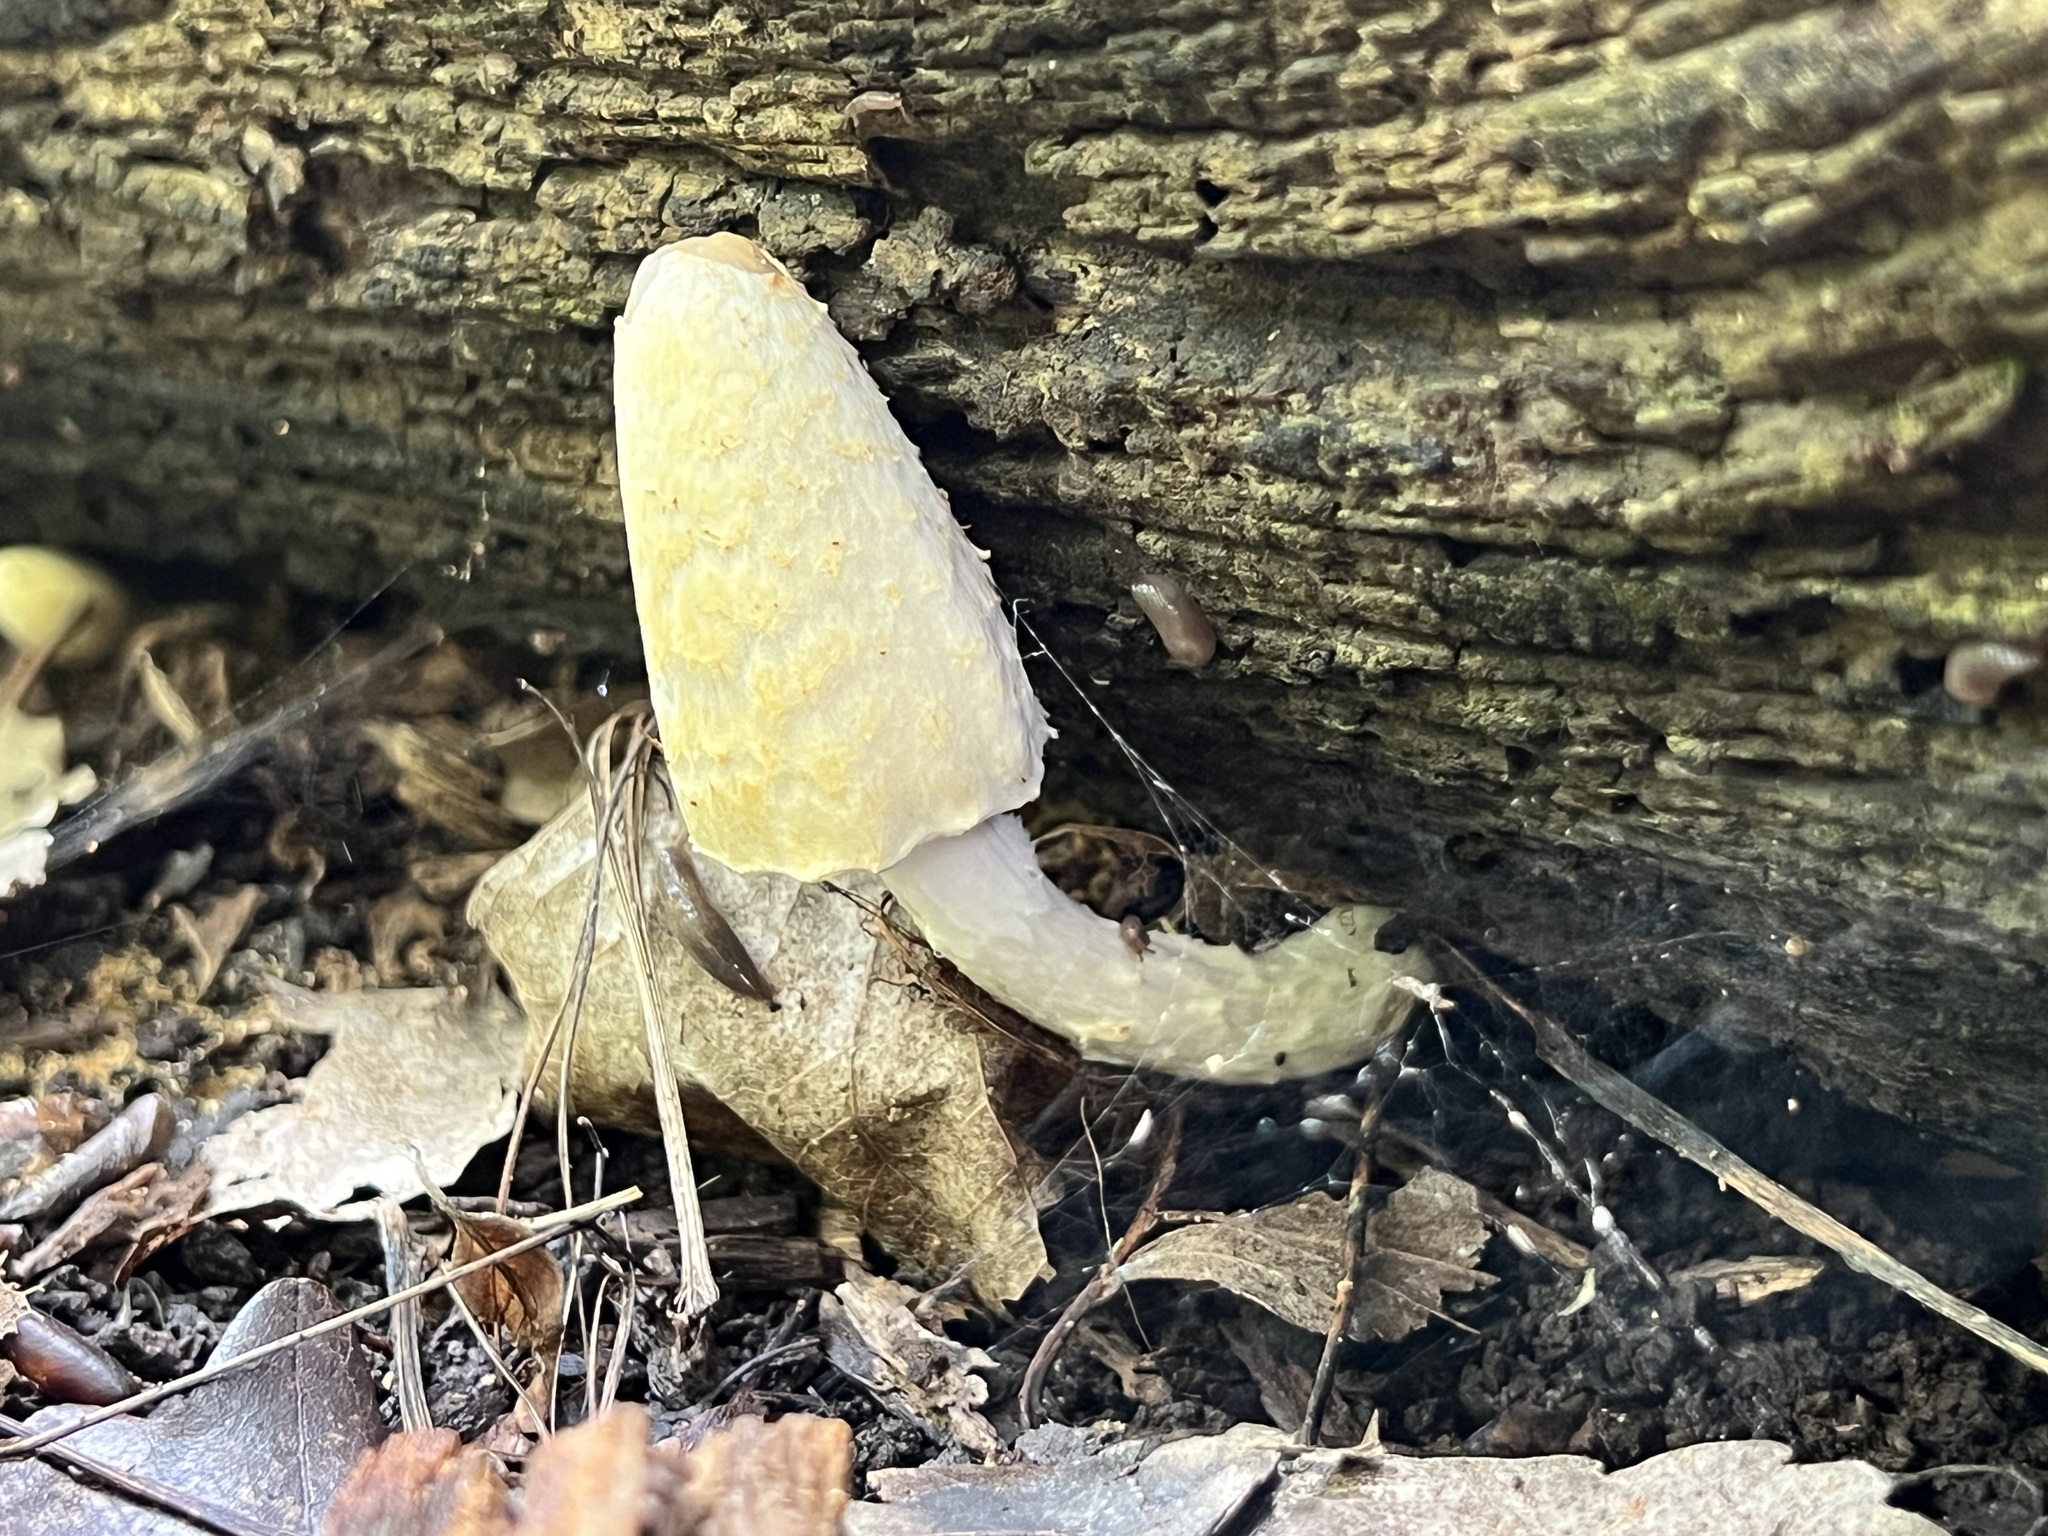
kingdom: Fungi
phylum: Basidiomycota
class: Agaricomycetes
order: Agaricales
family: Psathyrellaceae
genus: Coprinopsis
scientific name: Coprinopsis variegata
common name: Scaly ink cap
